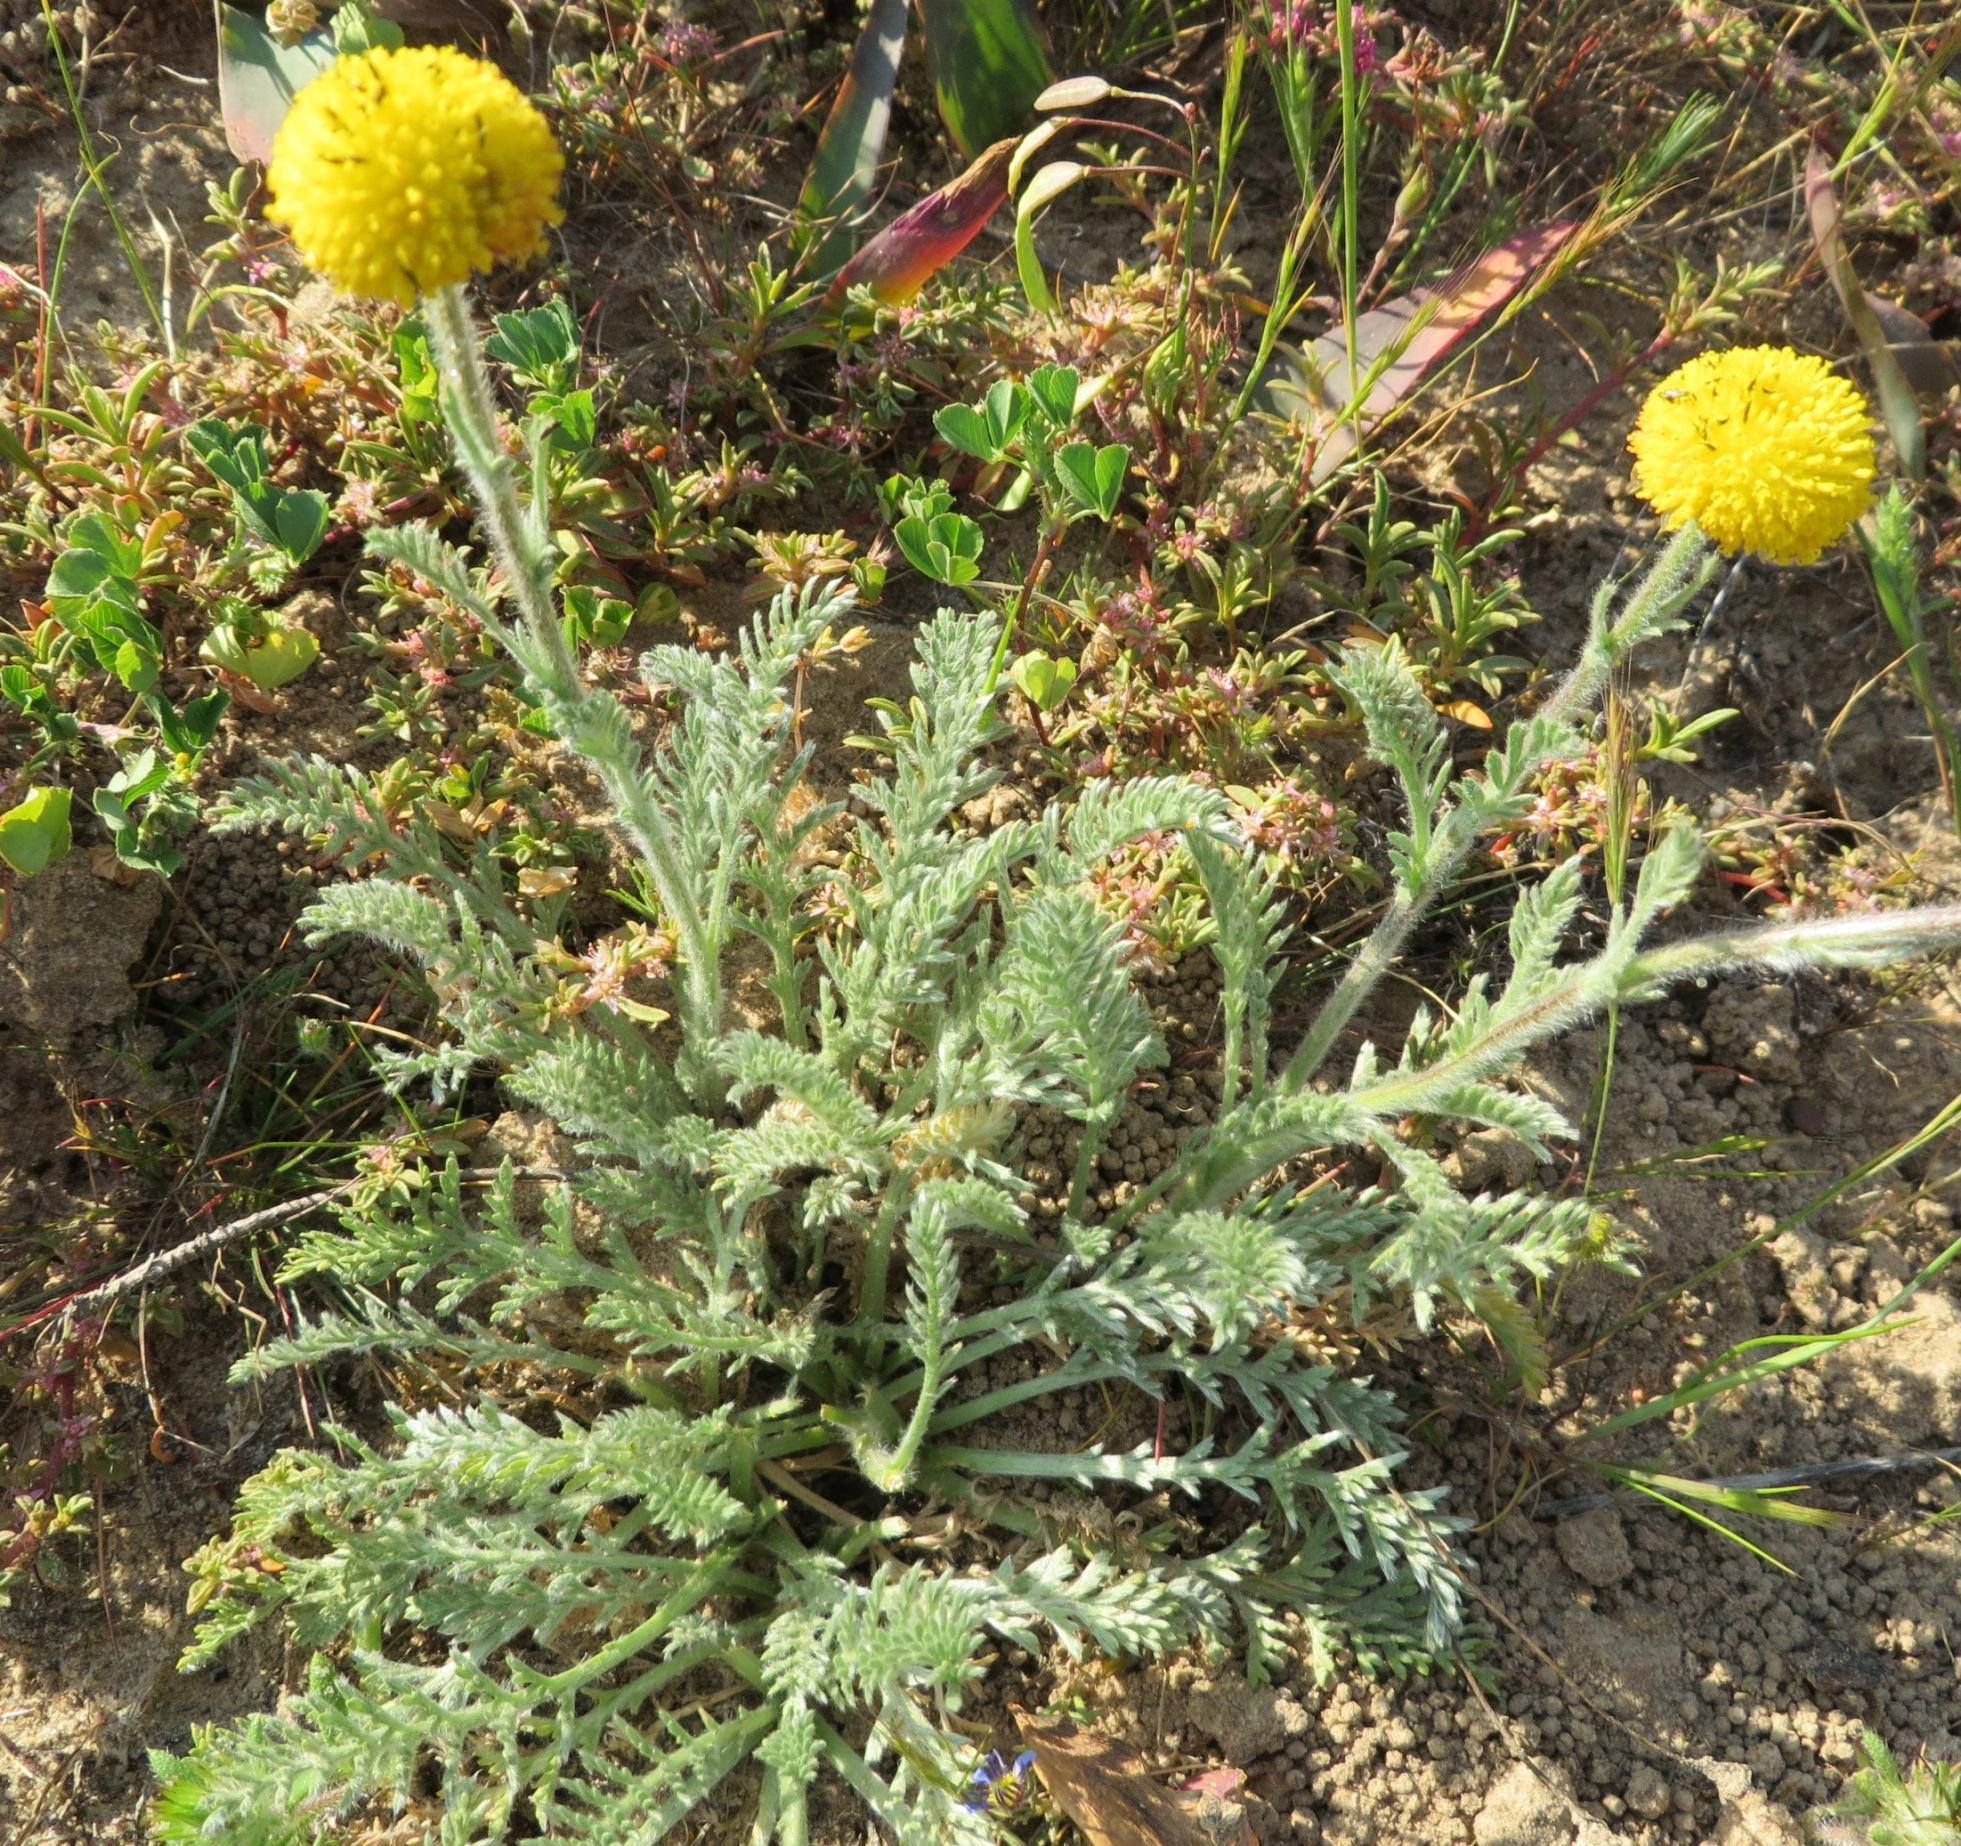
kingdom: Plantae
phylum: Tracheophyta
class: Magnoliopsida
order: Asterales
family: Asteraceae
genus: Lasiospermum
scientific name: Lasiospermum pedunculare
